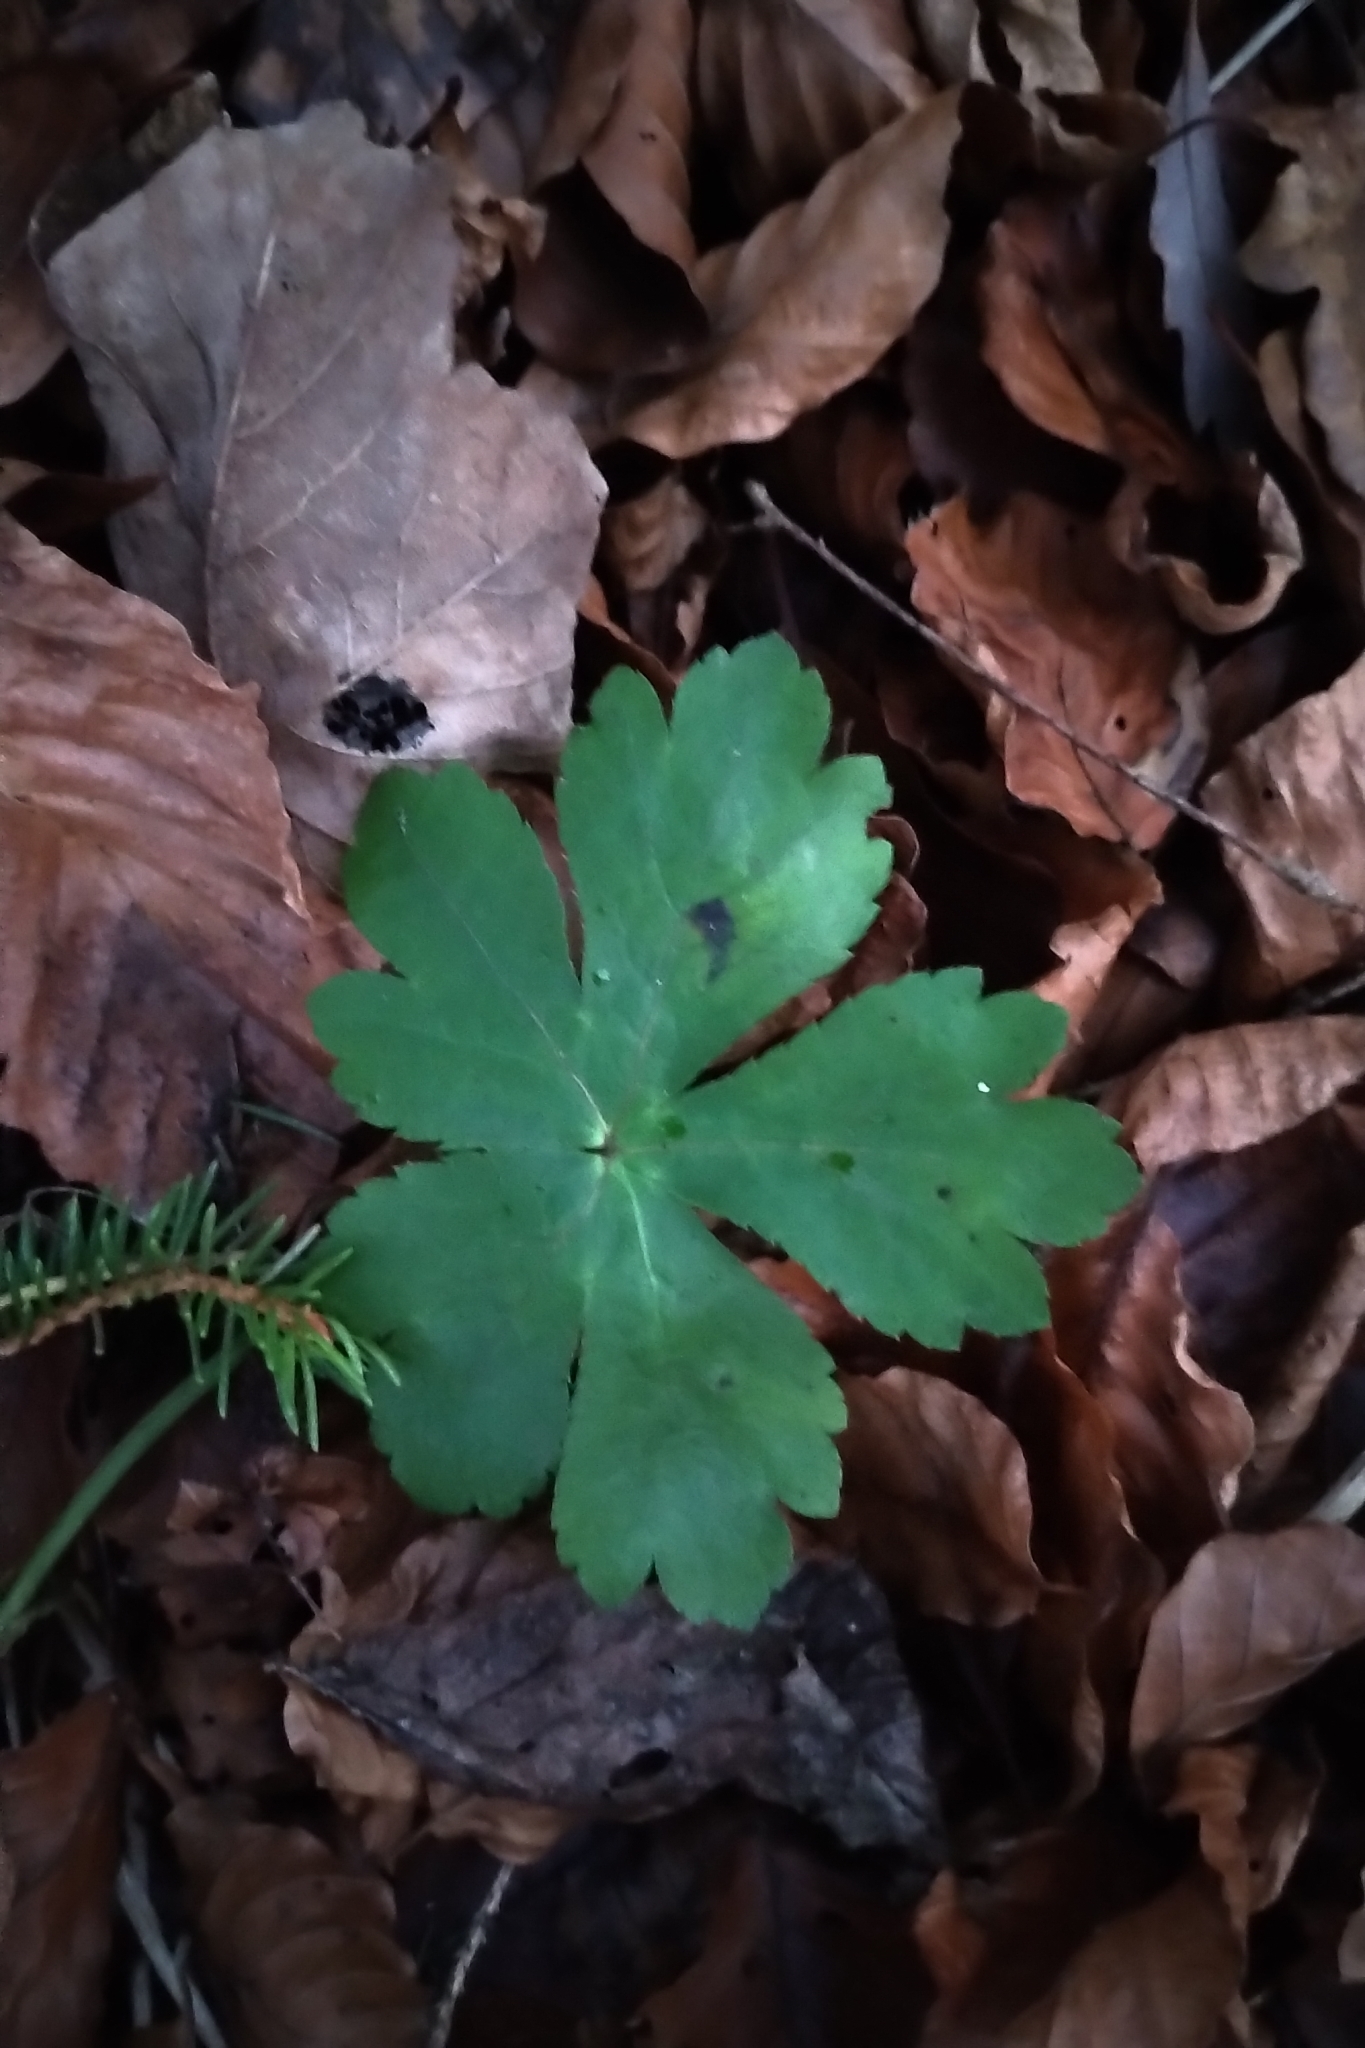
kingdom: Plantae
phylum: Tracheophyta
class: Magnoliopsida
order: Apiales
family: Apiaceae
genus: Sanicula
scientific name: Sanicula europaea
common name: Sanicle
